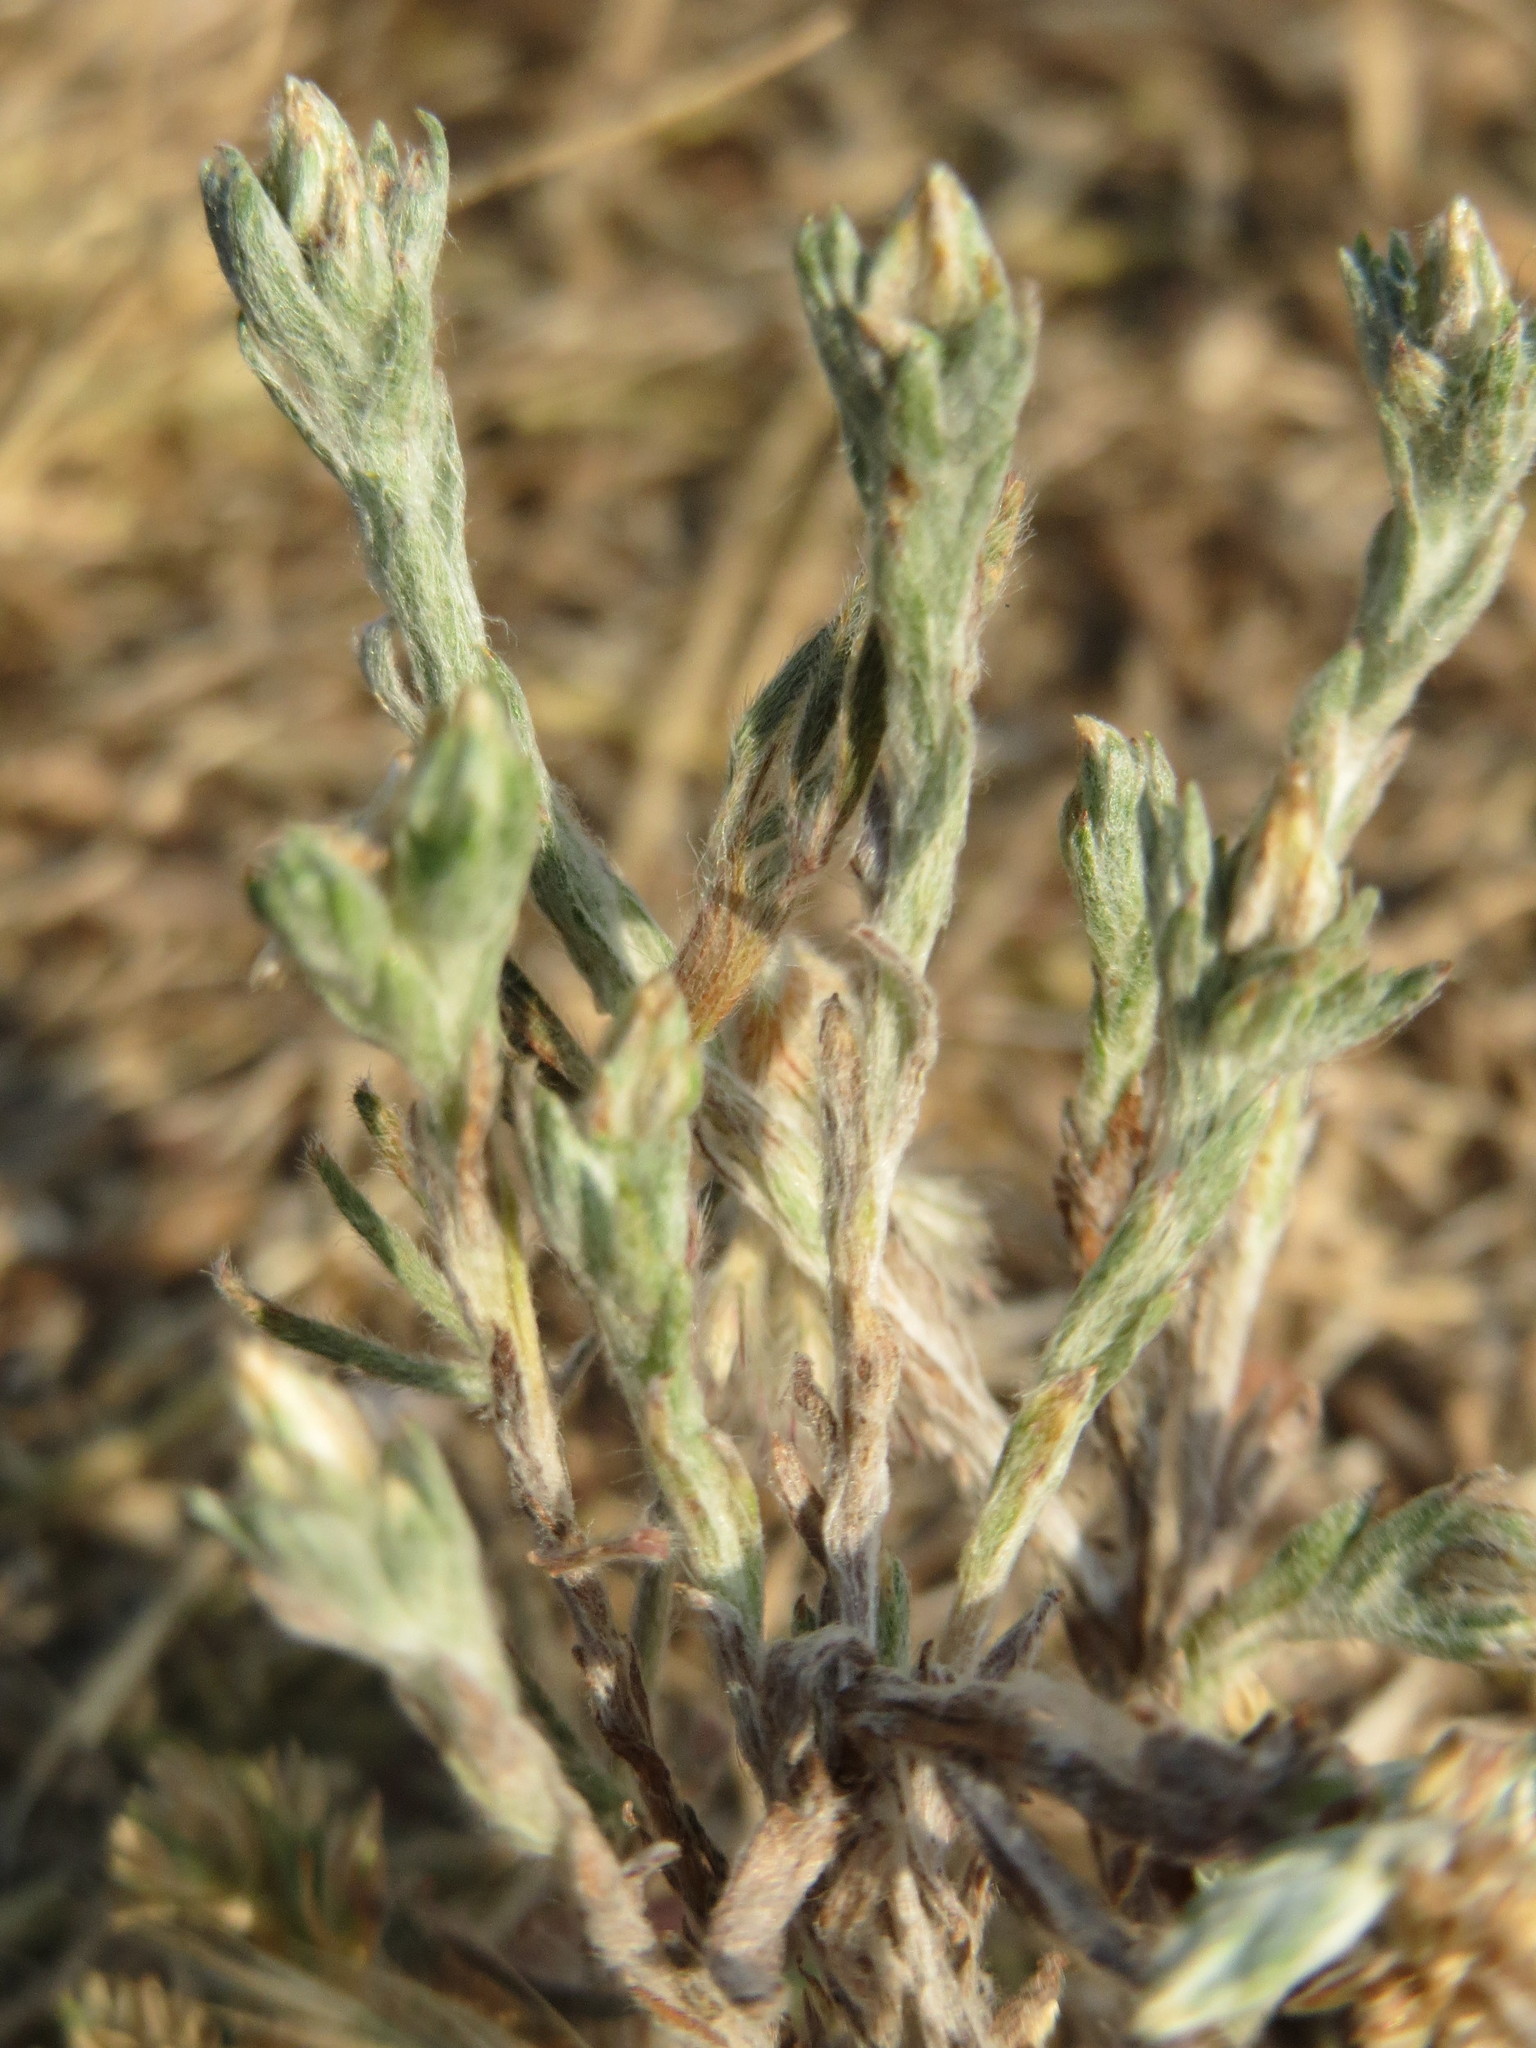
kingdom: Plantae
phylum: Tracheophyta
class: Magnoliopsida
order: Asterales
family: Asteraceae
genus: Filago
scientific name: Filago arvensis
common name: Field cudweed
